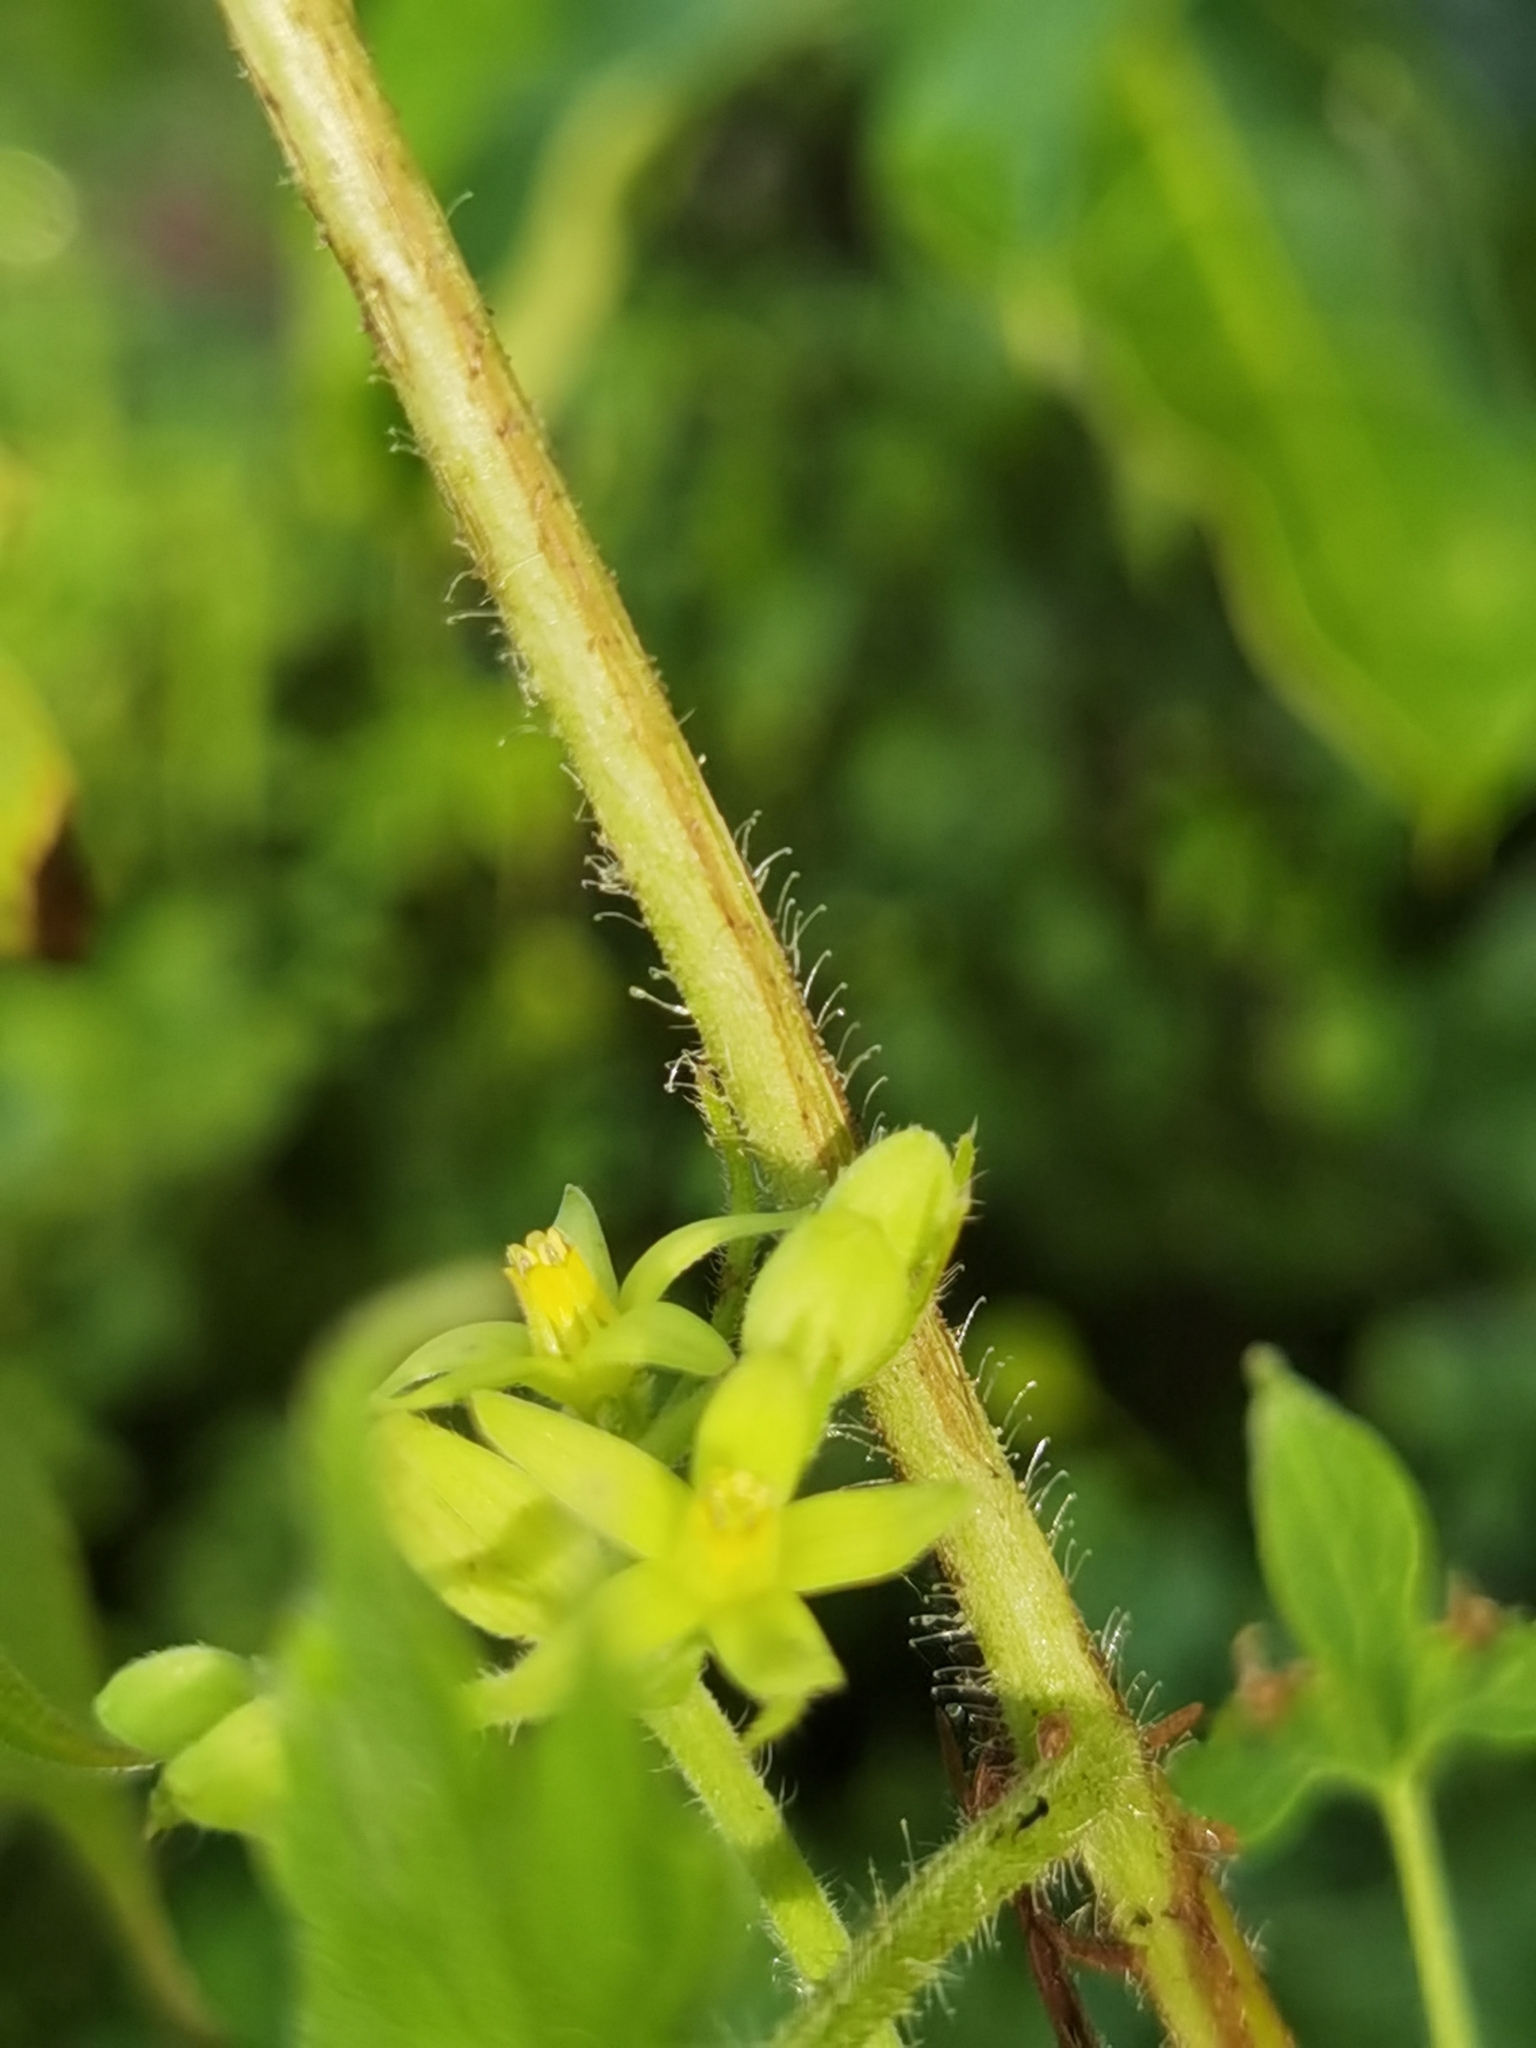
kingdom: Plantae
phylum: Tracheophyta
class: Magnoliopsida
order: Cornales
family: Loasaceae
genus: Gronovia
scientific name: Gronovia scandens
